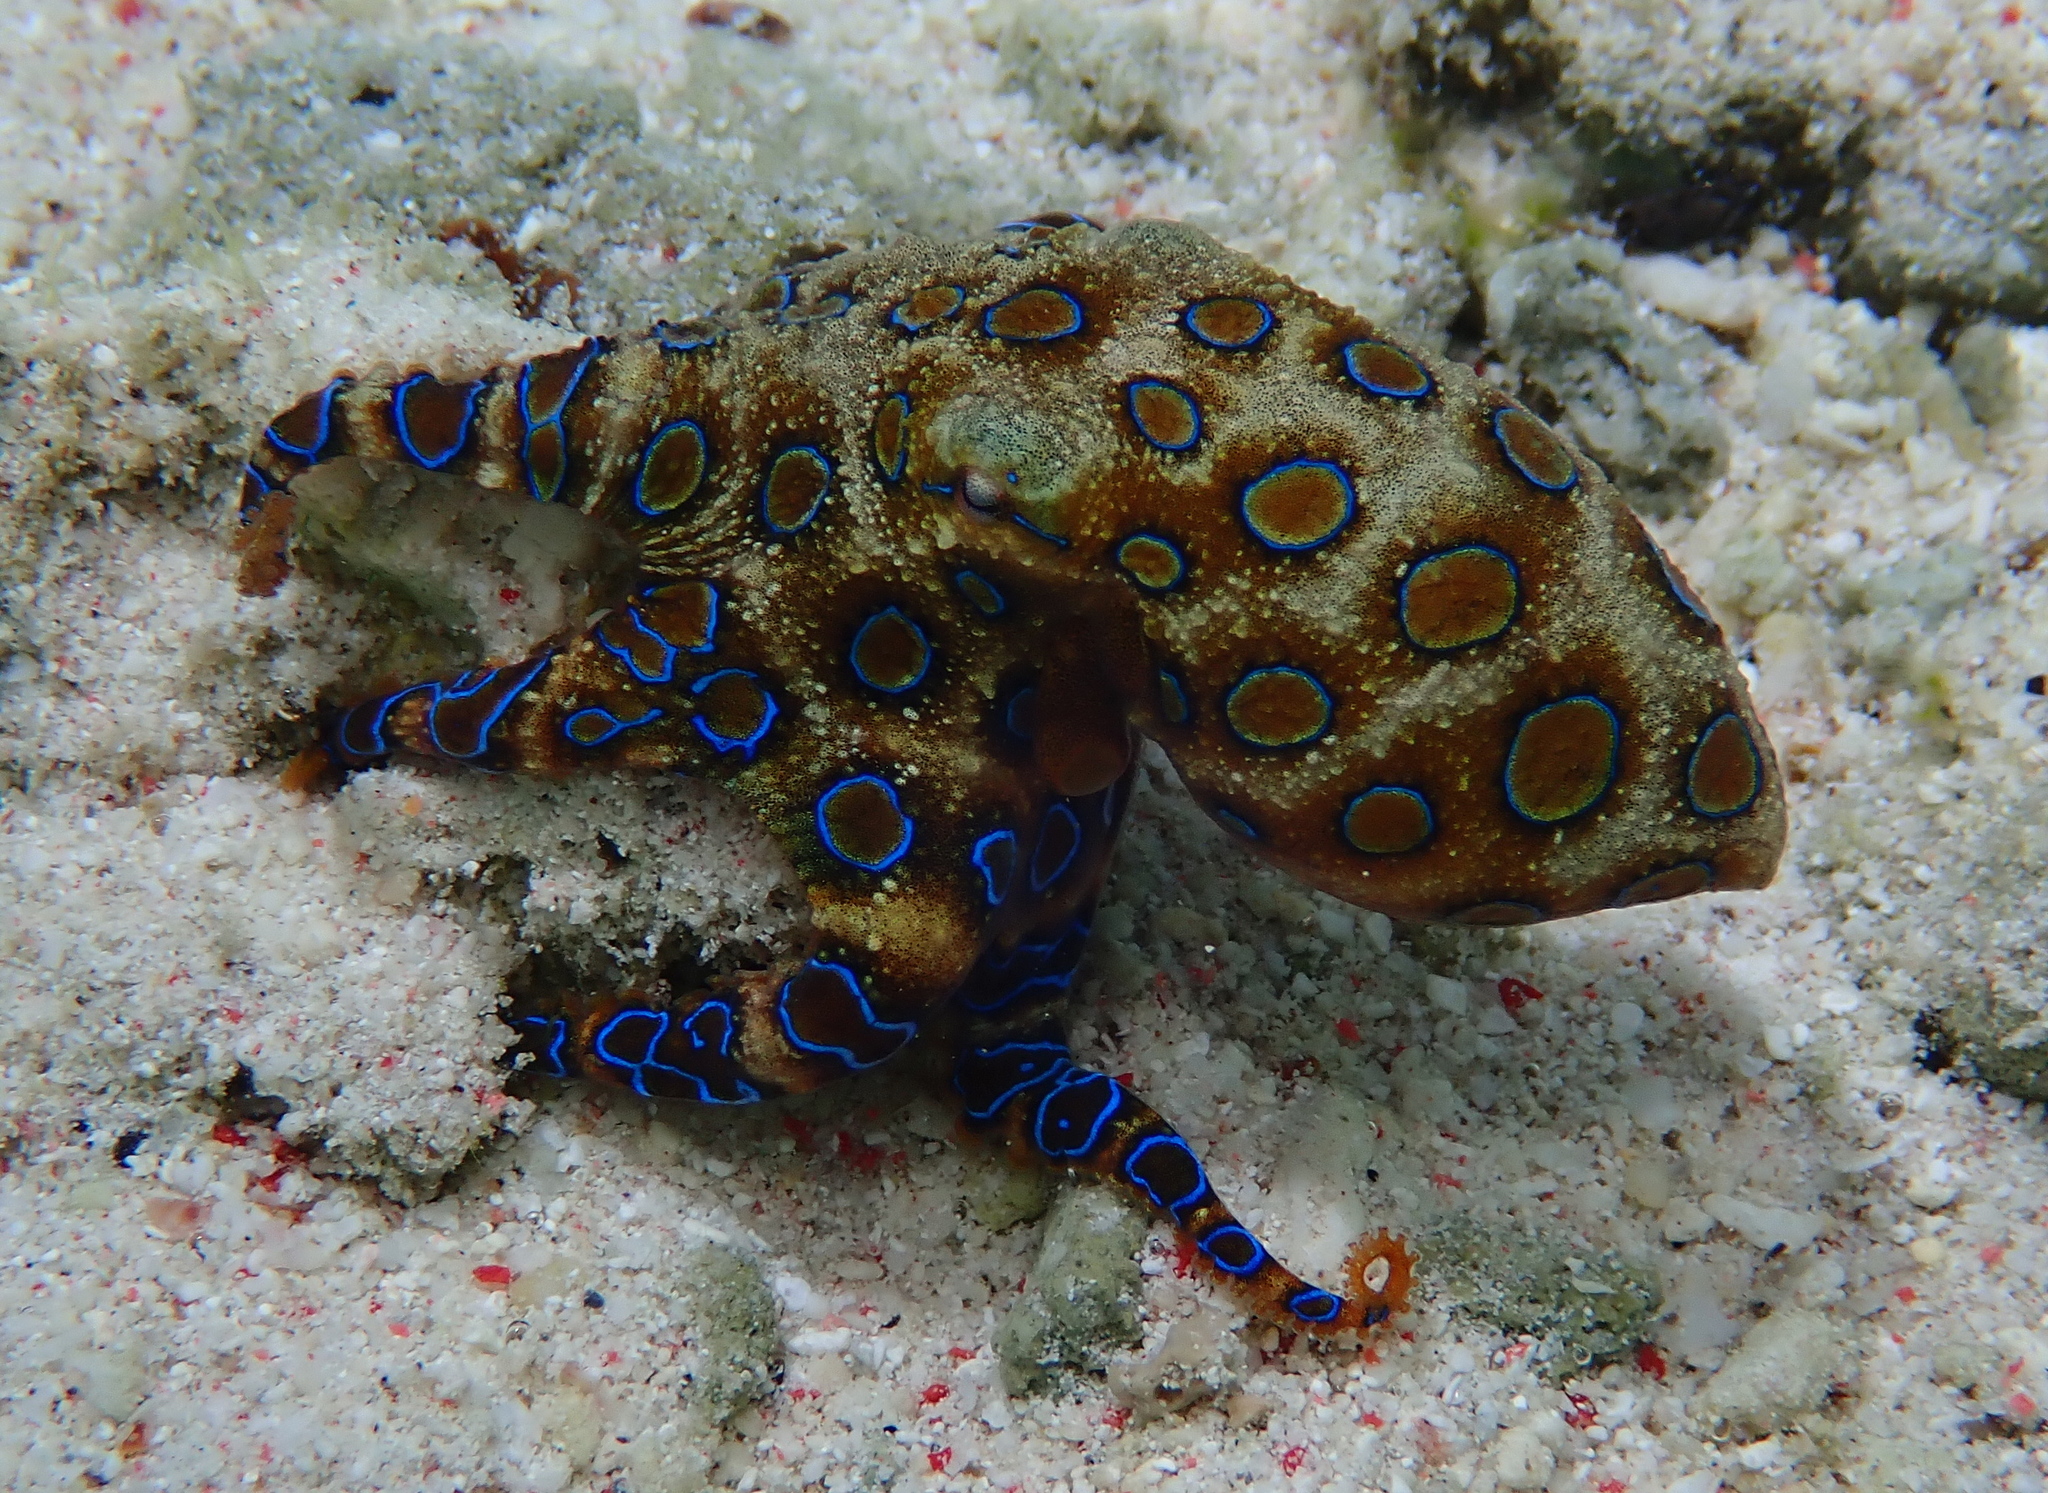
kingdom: Animalia
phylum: Mollusca
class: Cephalopoda
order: Octopoda
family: Octopodidae
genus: Hapalochlaena
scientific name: Hapalochlaena lunulata
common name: Greater blue-ringed octopus
